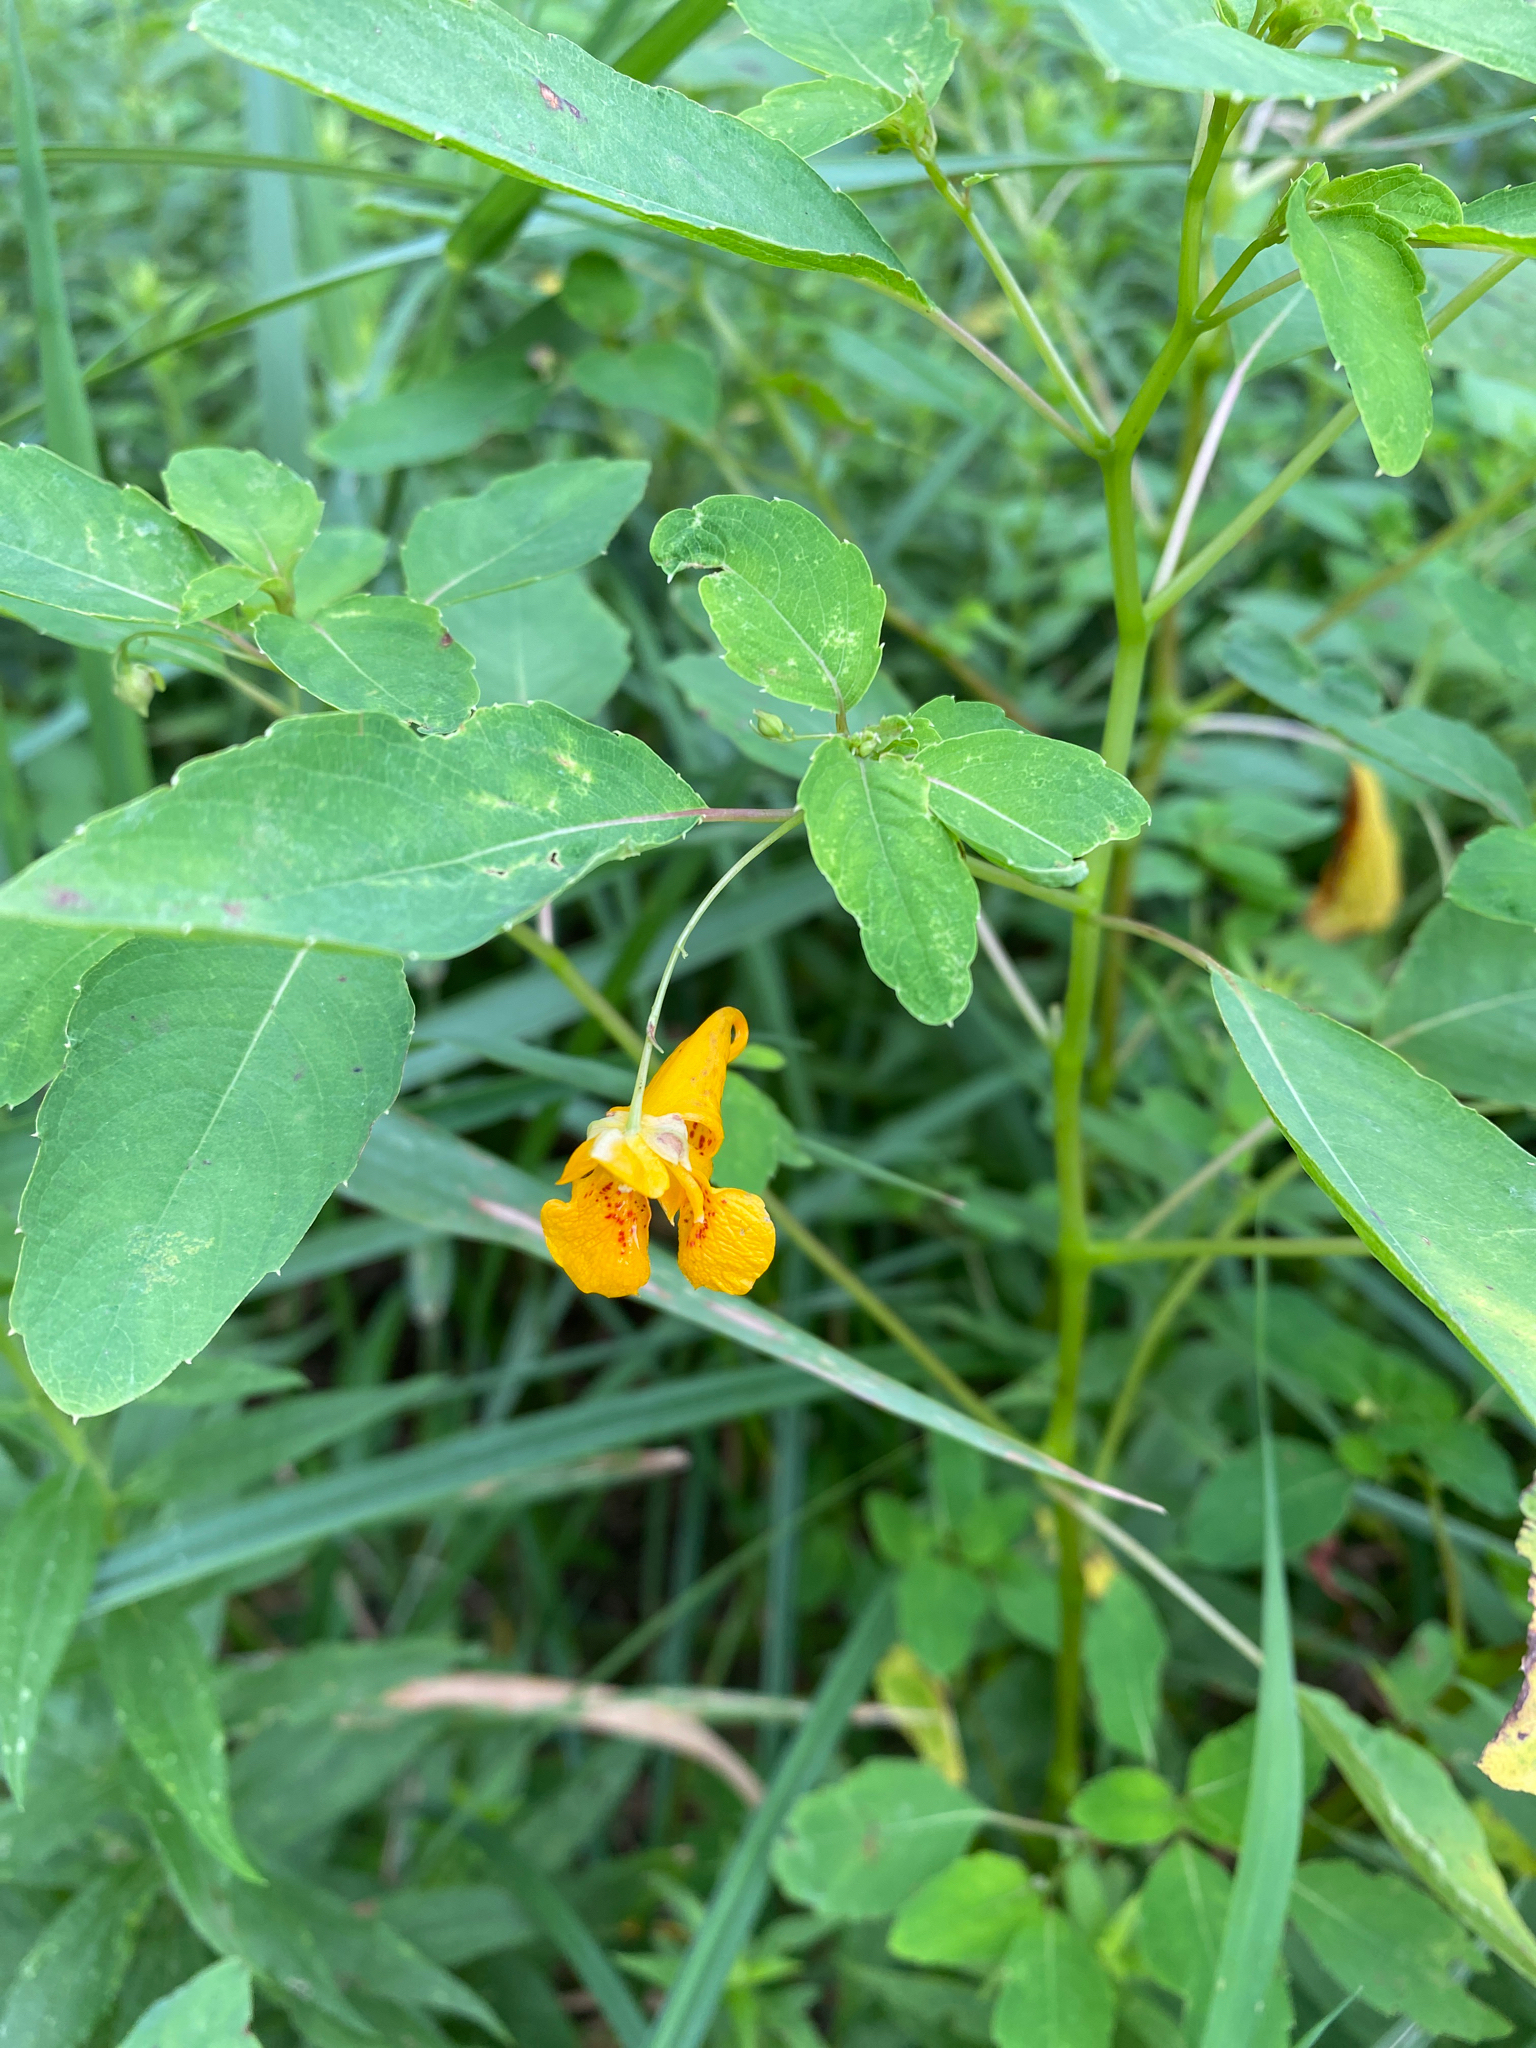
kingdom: Plantae
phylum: Tracheophyta
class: Magnoliopsida
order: Ericales
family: Balsaminaceae
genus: Impatiens
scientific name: Impatiens capensis
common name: Orange balsam
